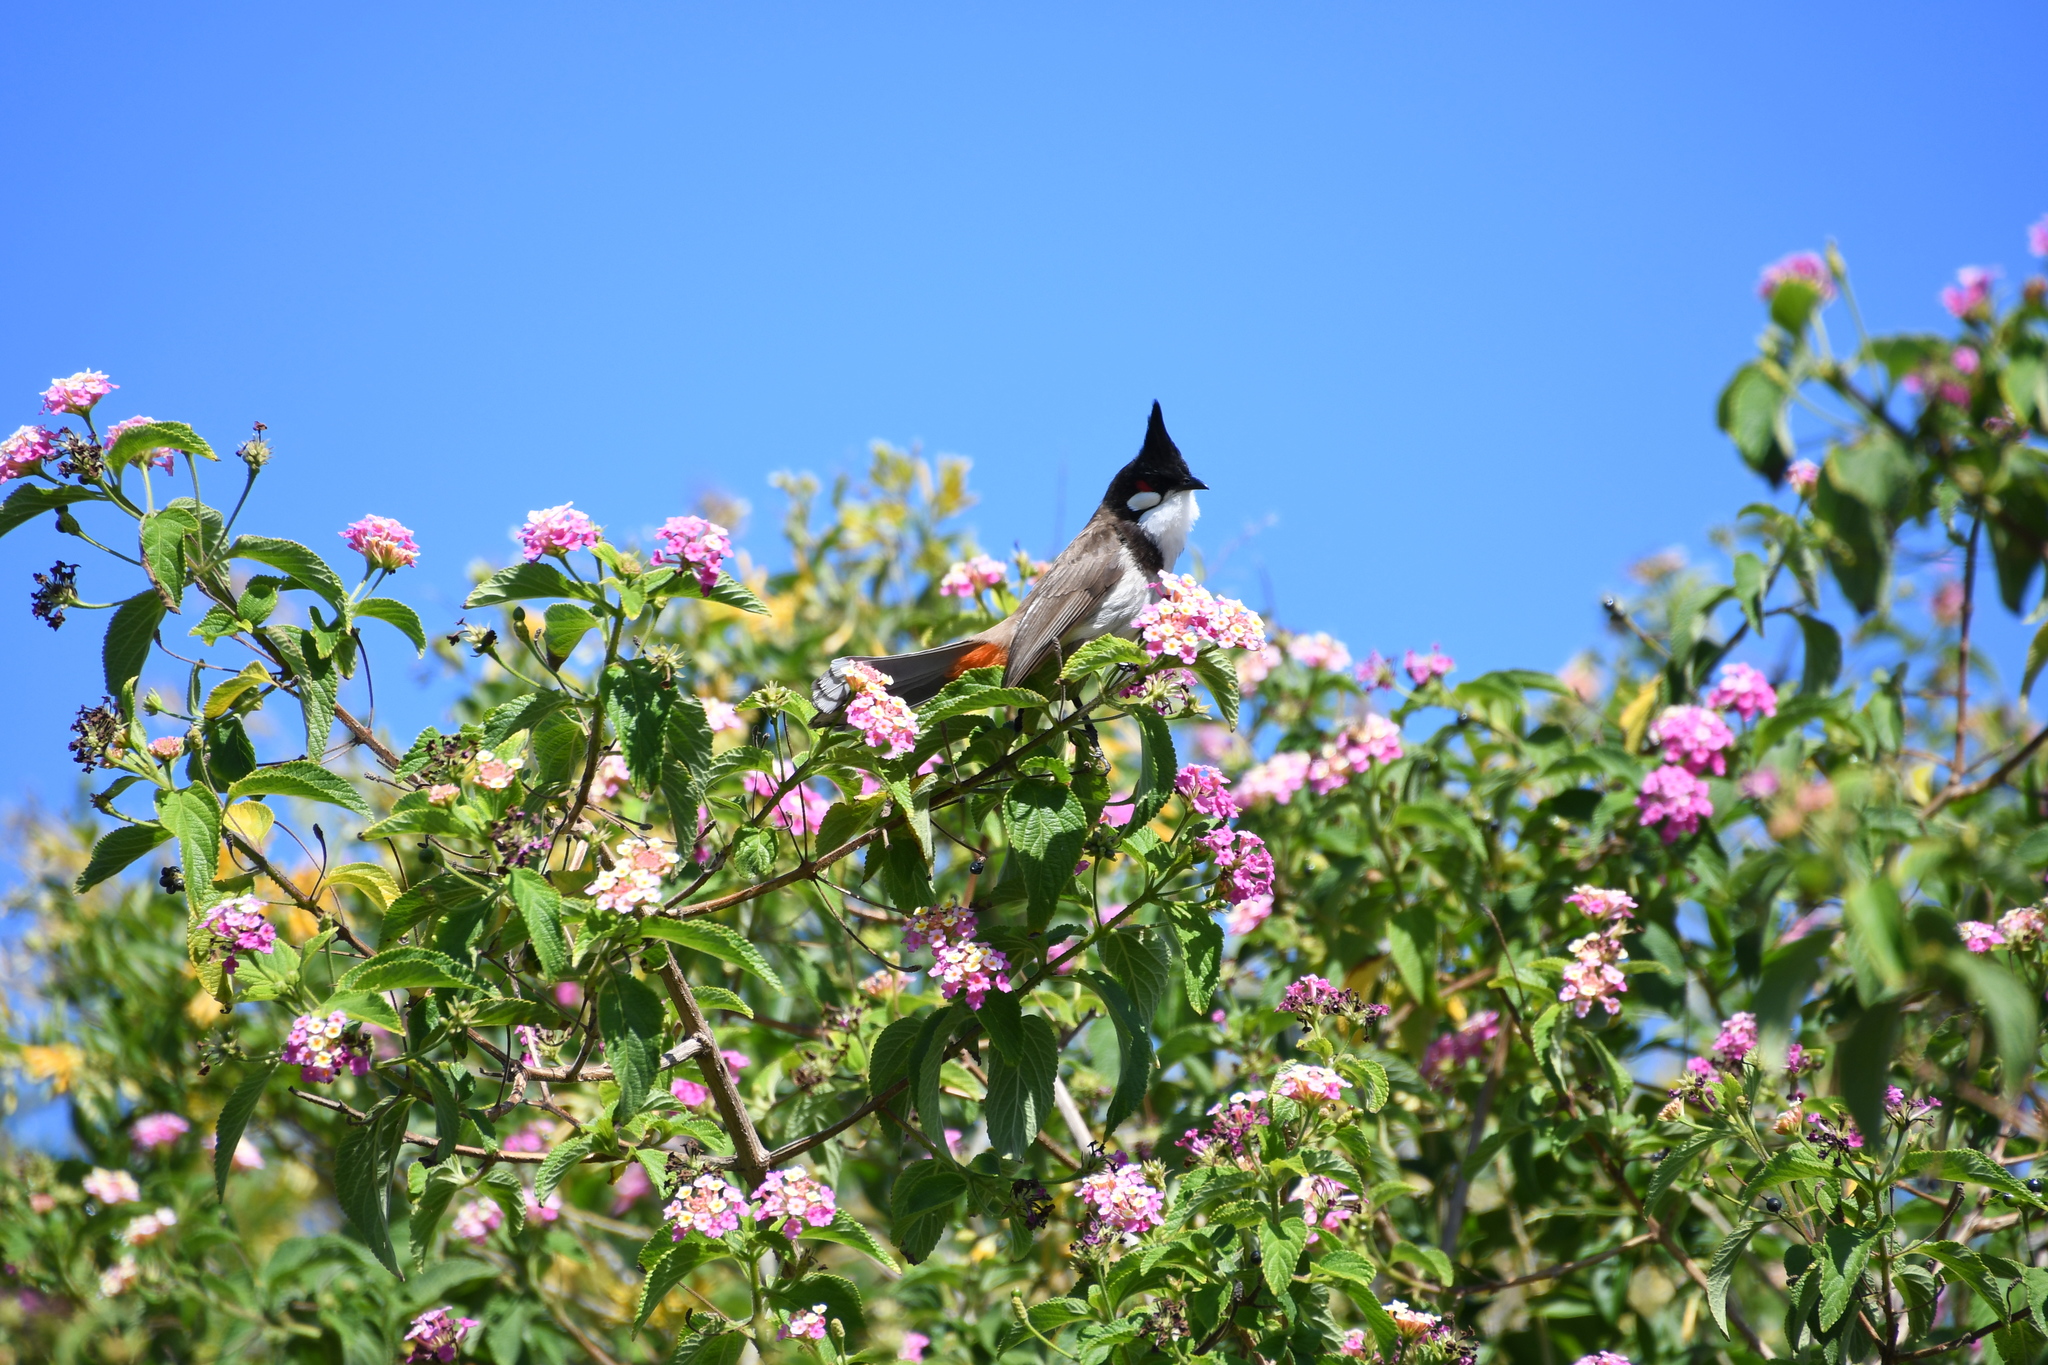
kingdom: Animalia
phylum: Chordata
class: Aves
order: Passeriformes
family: Pycnonotidae
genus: Pycnonotus
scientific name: Pycnonotus jocosus
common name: Red-whiskered bulbul
